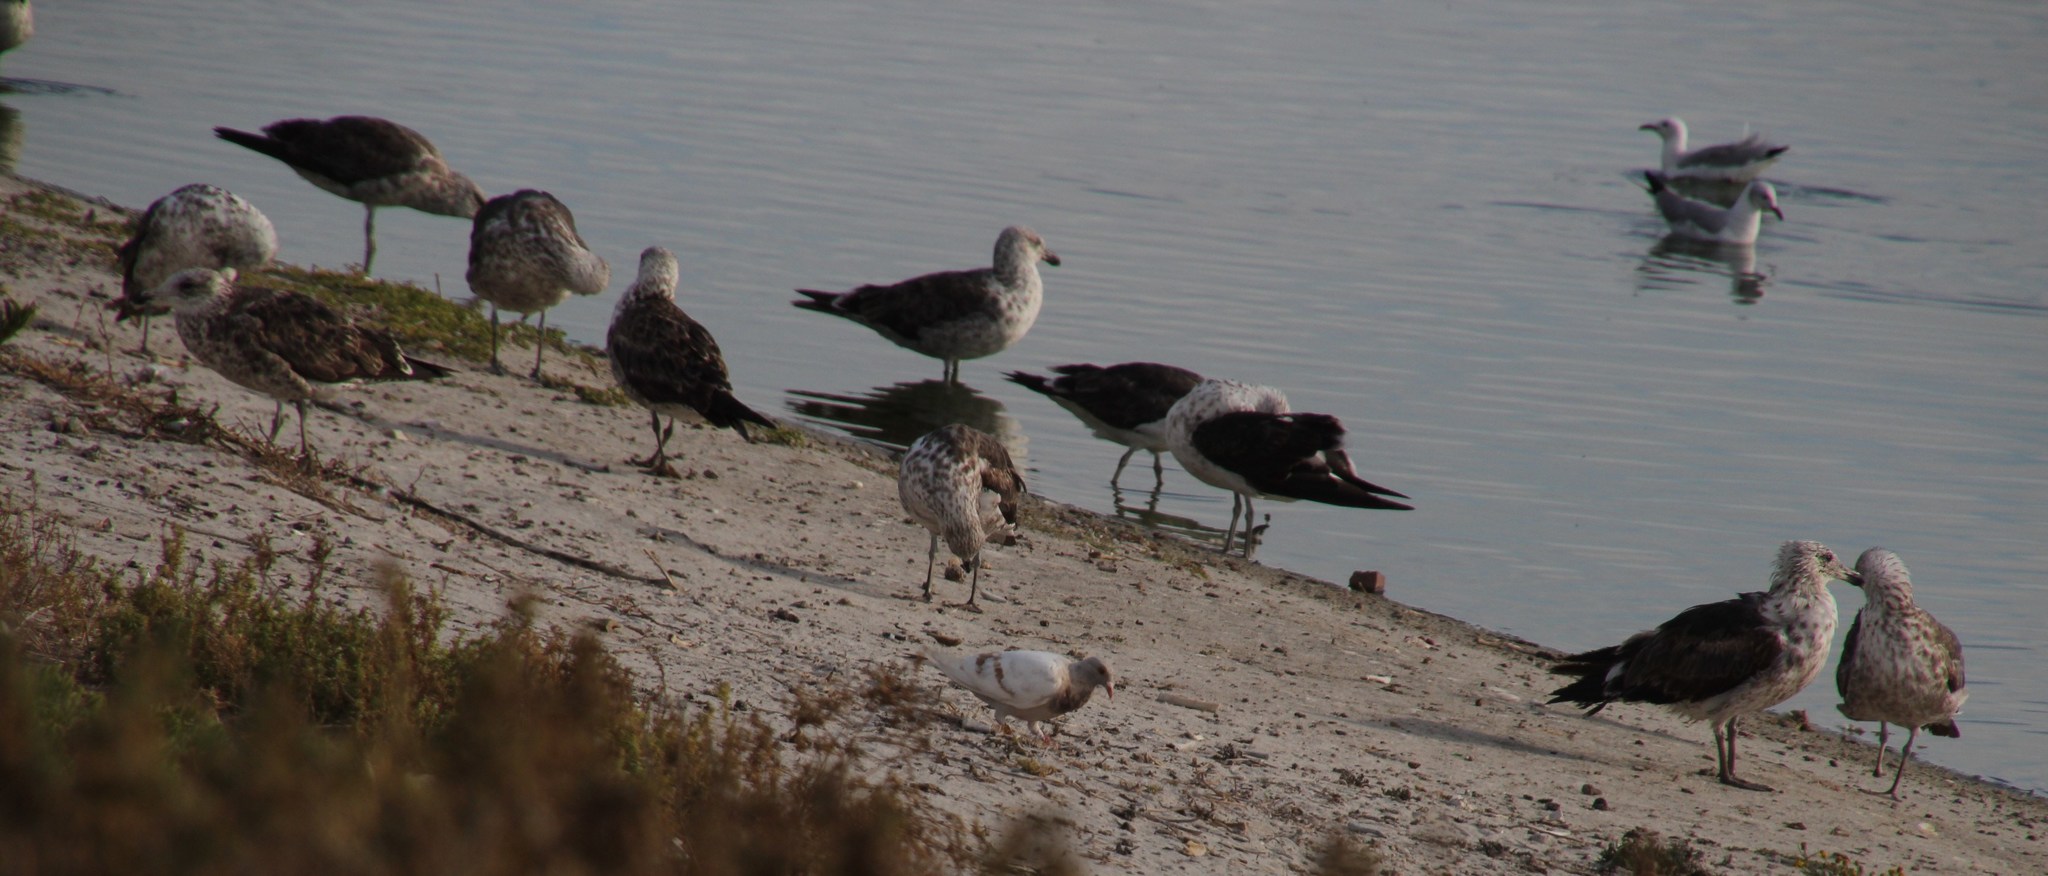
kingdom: Animalia
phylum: Chordata
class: Aves
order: Charadriiformes
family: Laridae
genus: Larus
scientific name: Larus dominicanus
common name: Kelp gull
